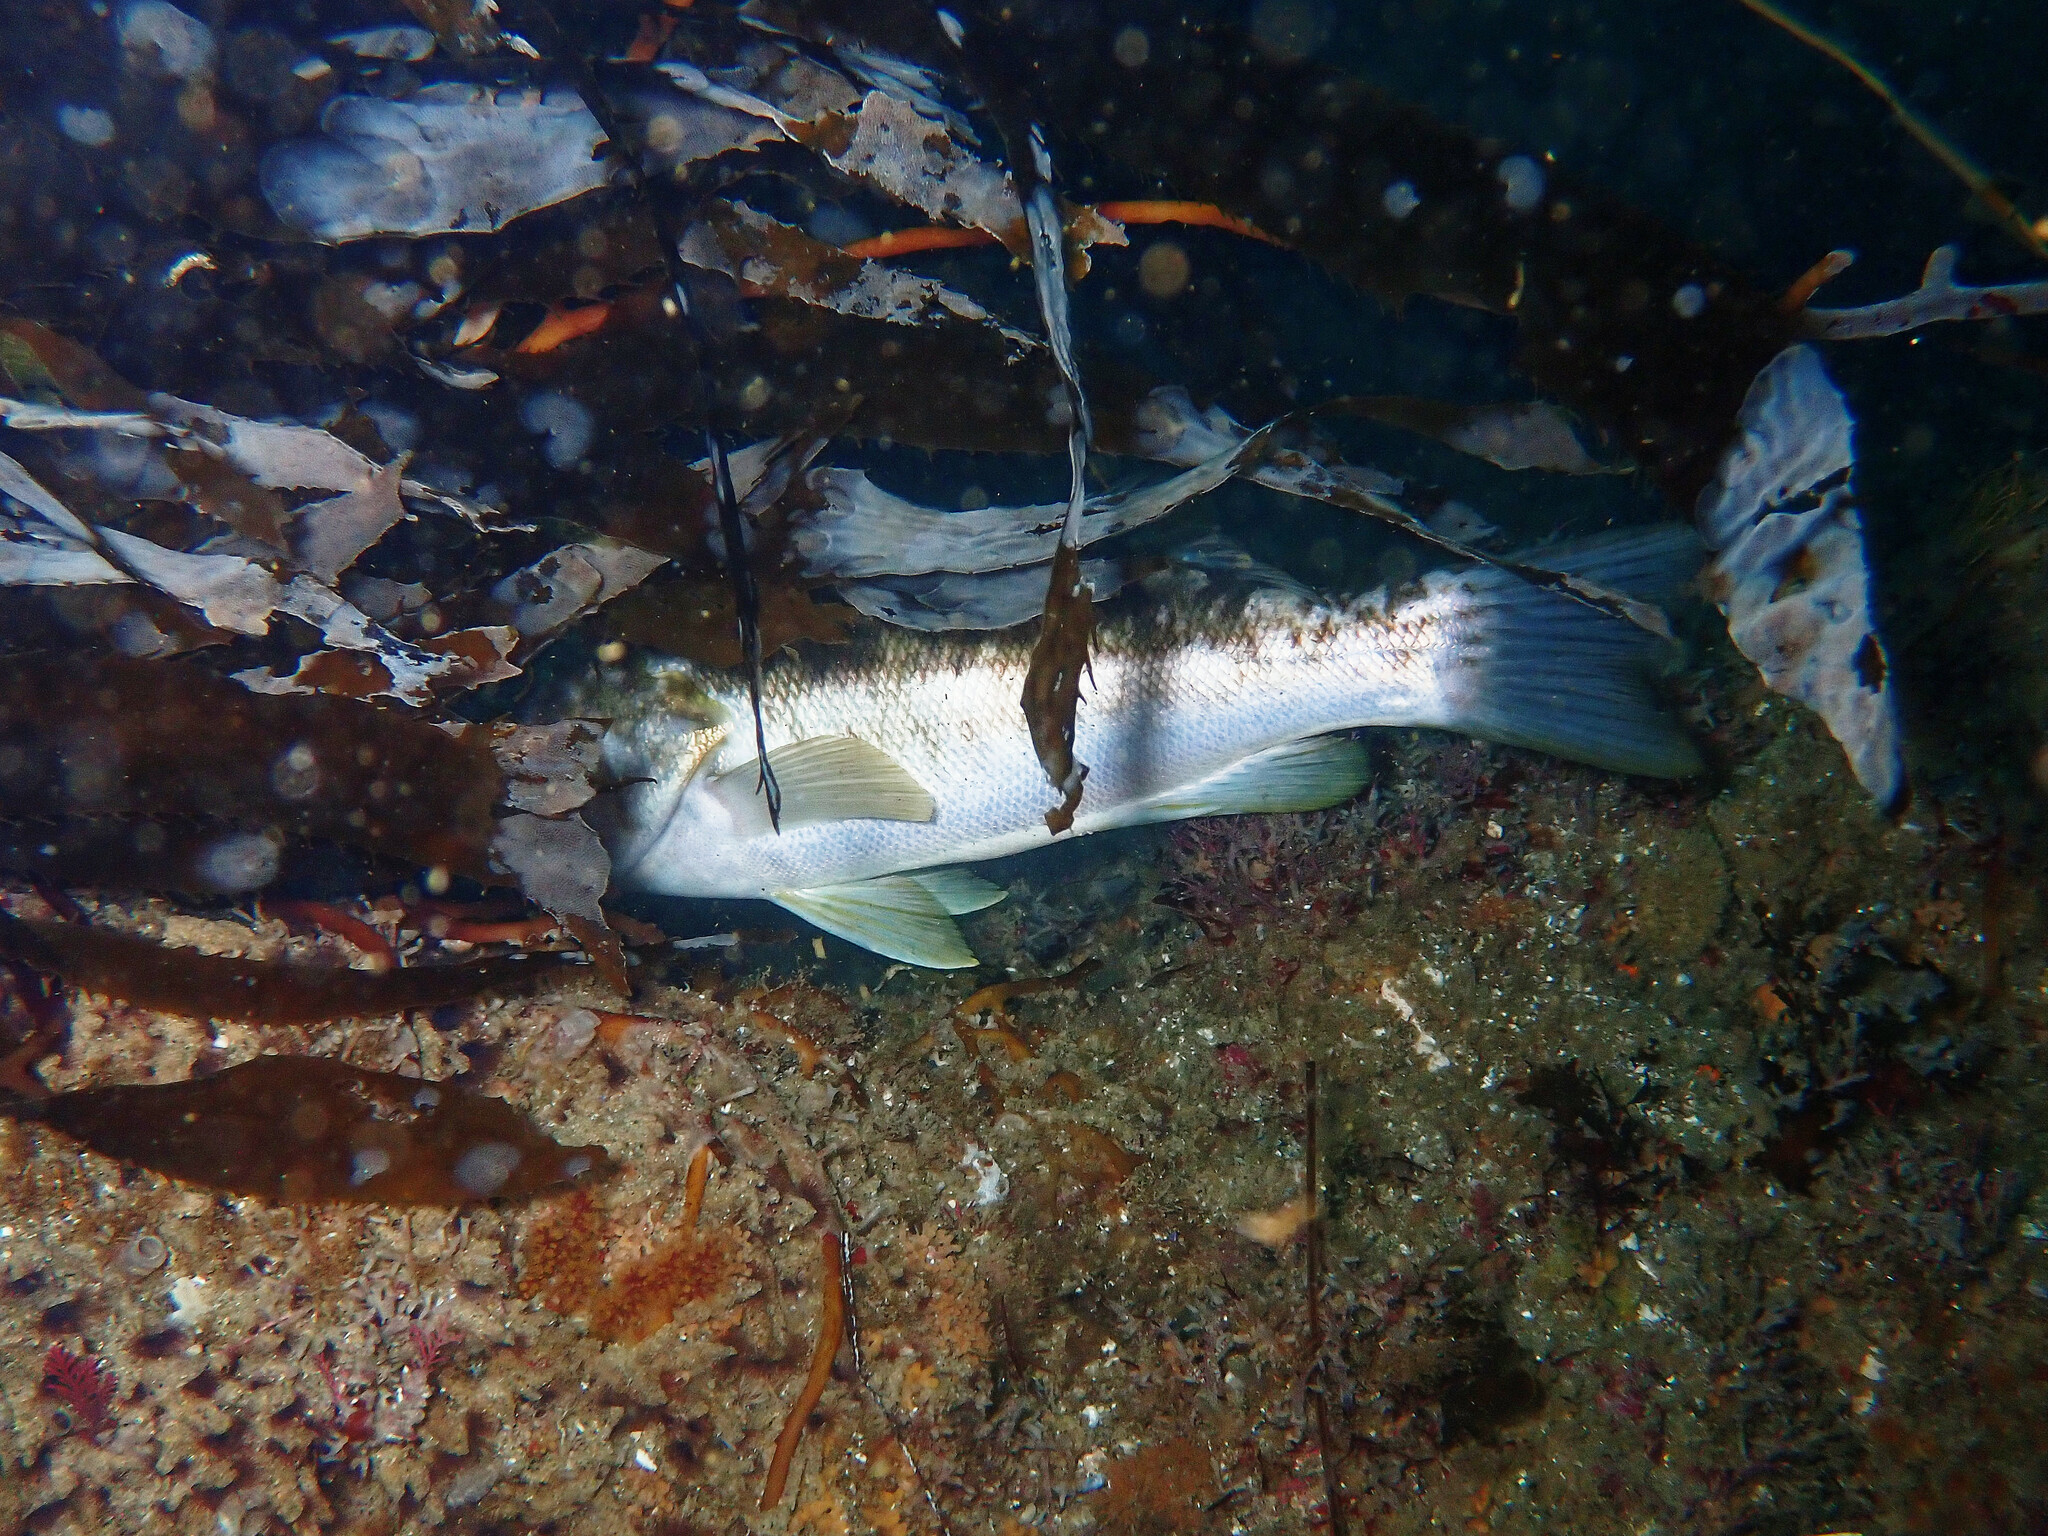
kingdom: Animalia
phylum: Chordata
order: Perciformes
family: Serranidae
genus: Paralabrax
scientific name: Paralabrax clathratus
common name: Kelp bass
